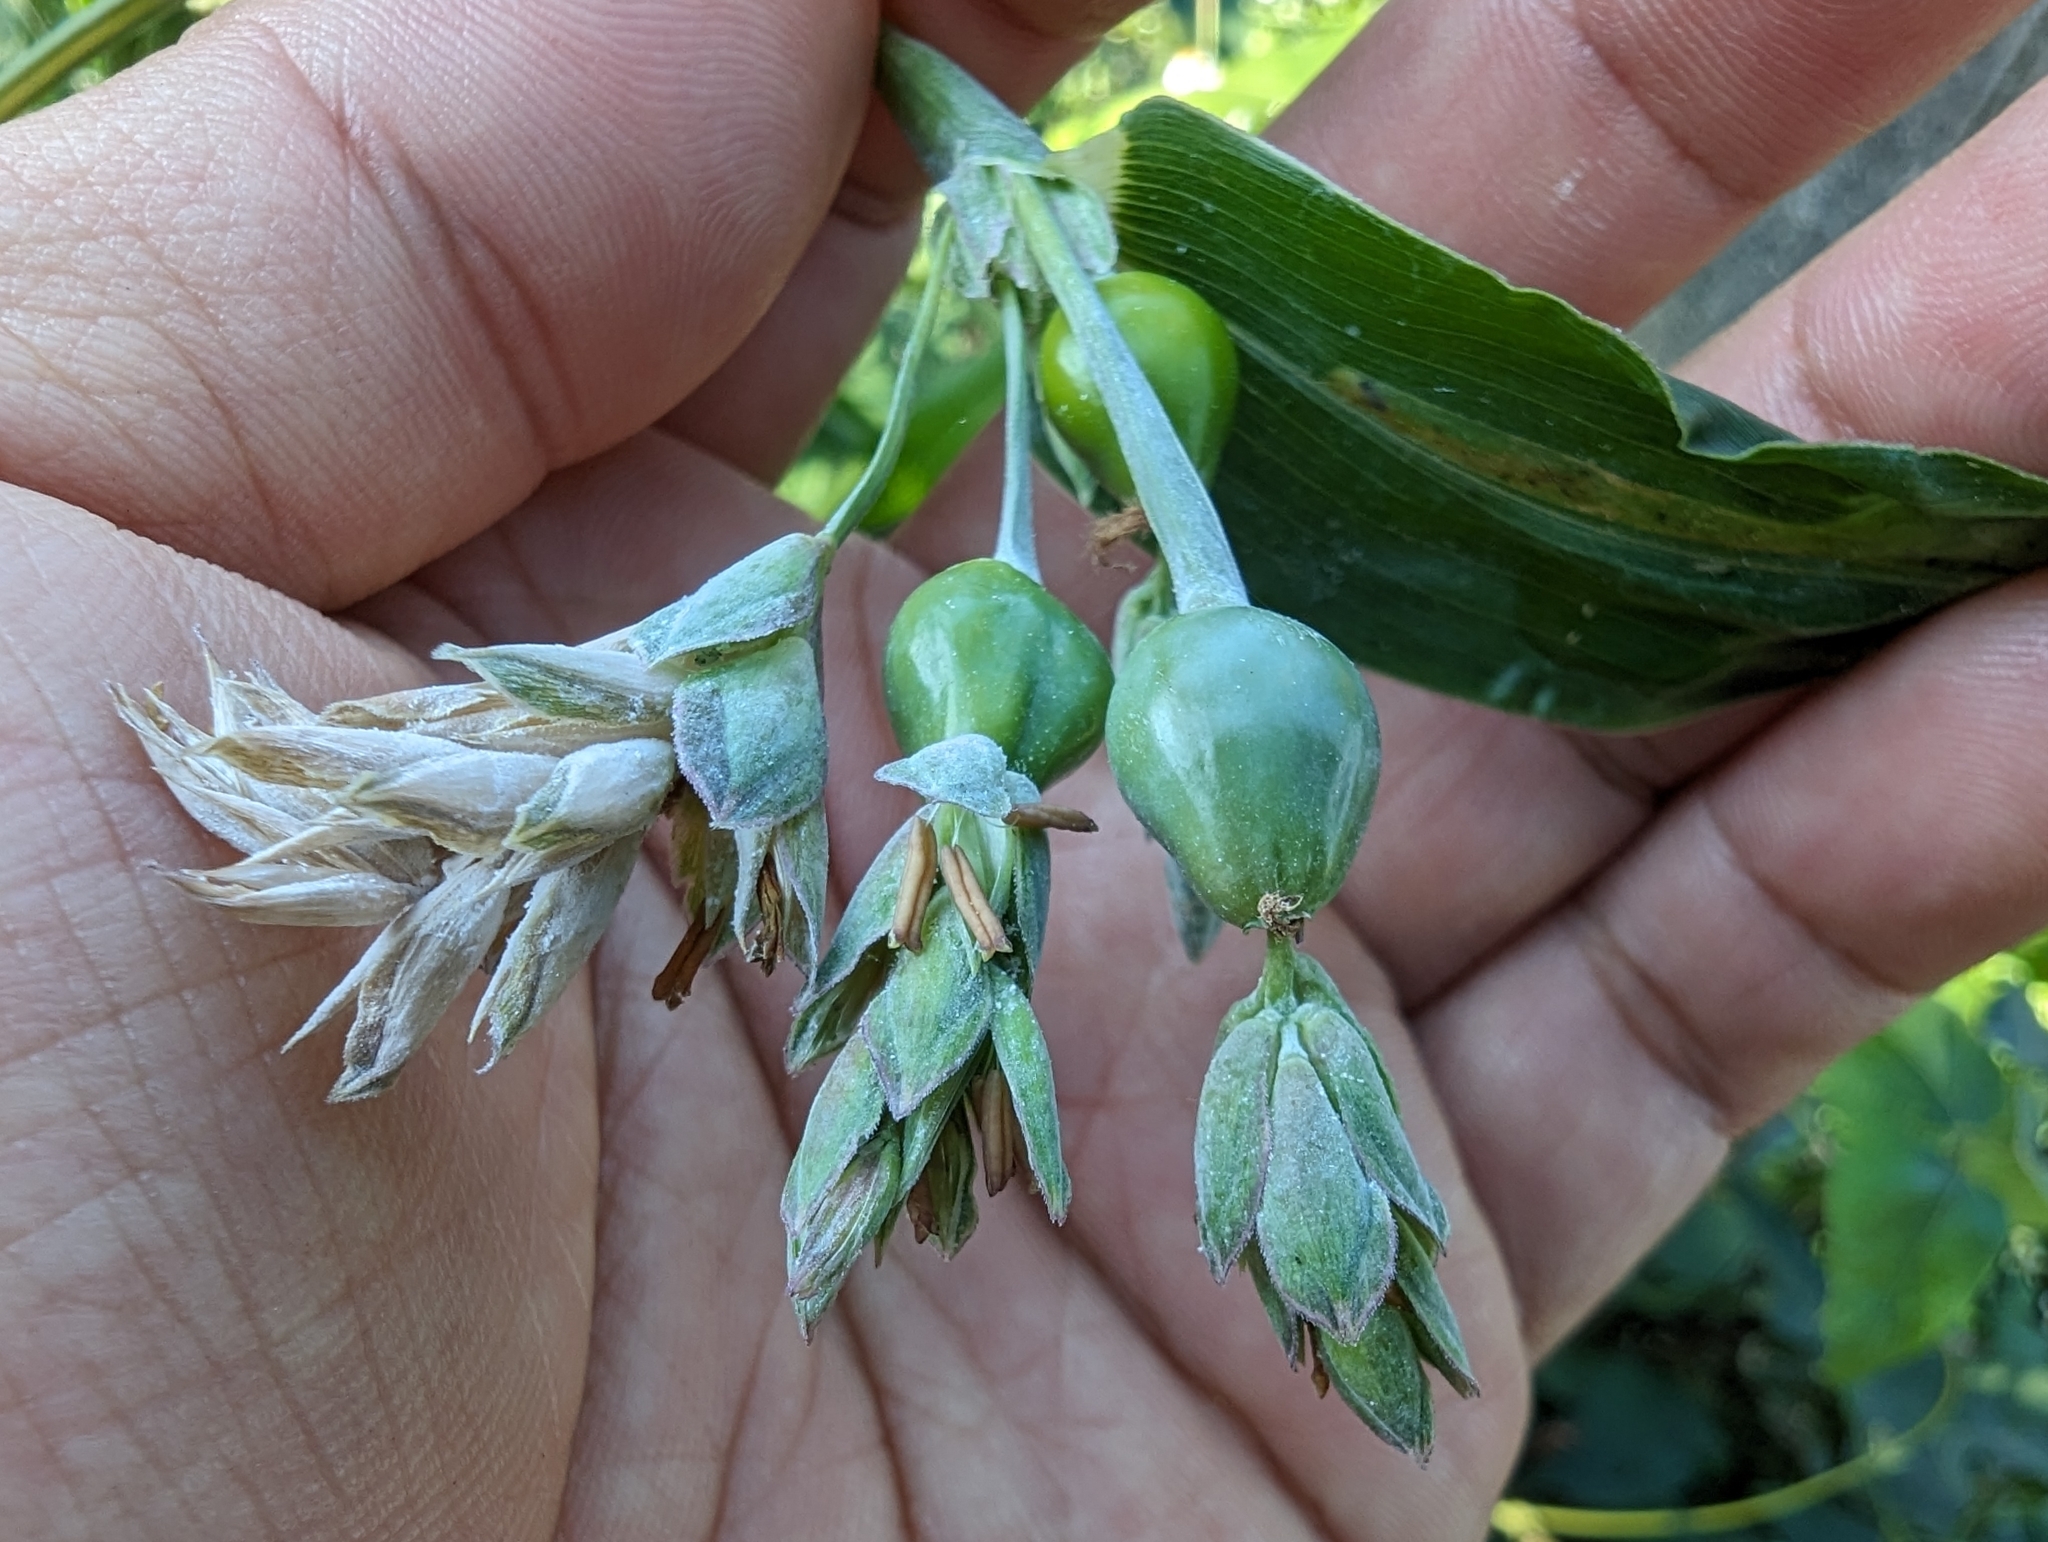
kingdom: Plantae
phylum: Tracheophyta
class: Liliopsida
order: Poales
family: Poaceae
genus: Coix
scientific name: Coix lacryma-jobi
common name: Job's tears
